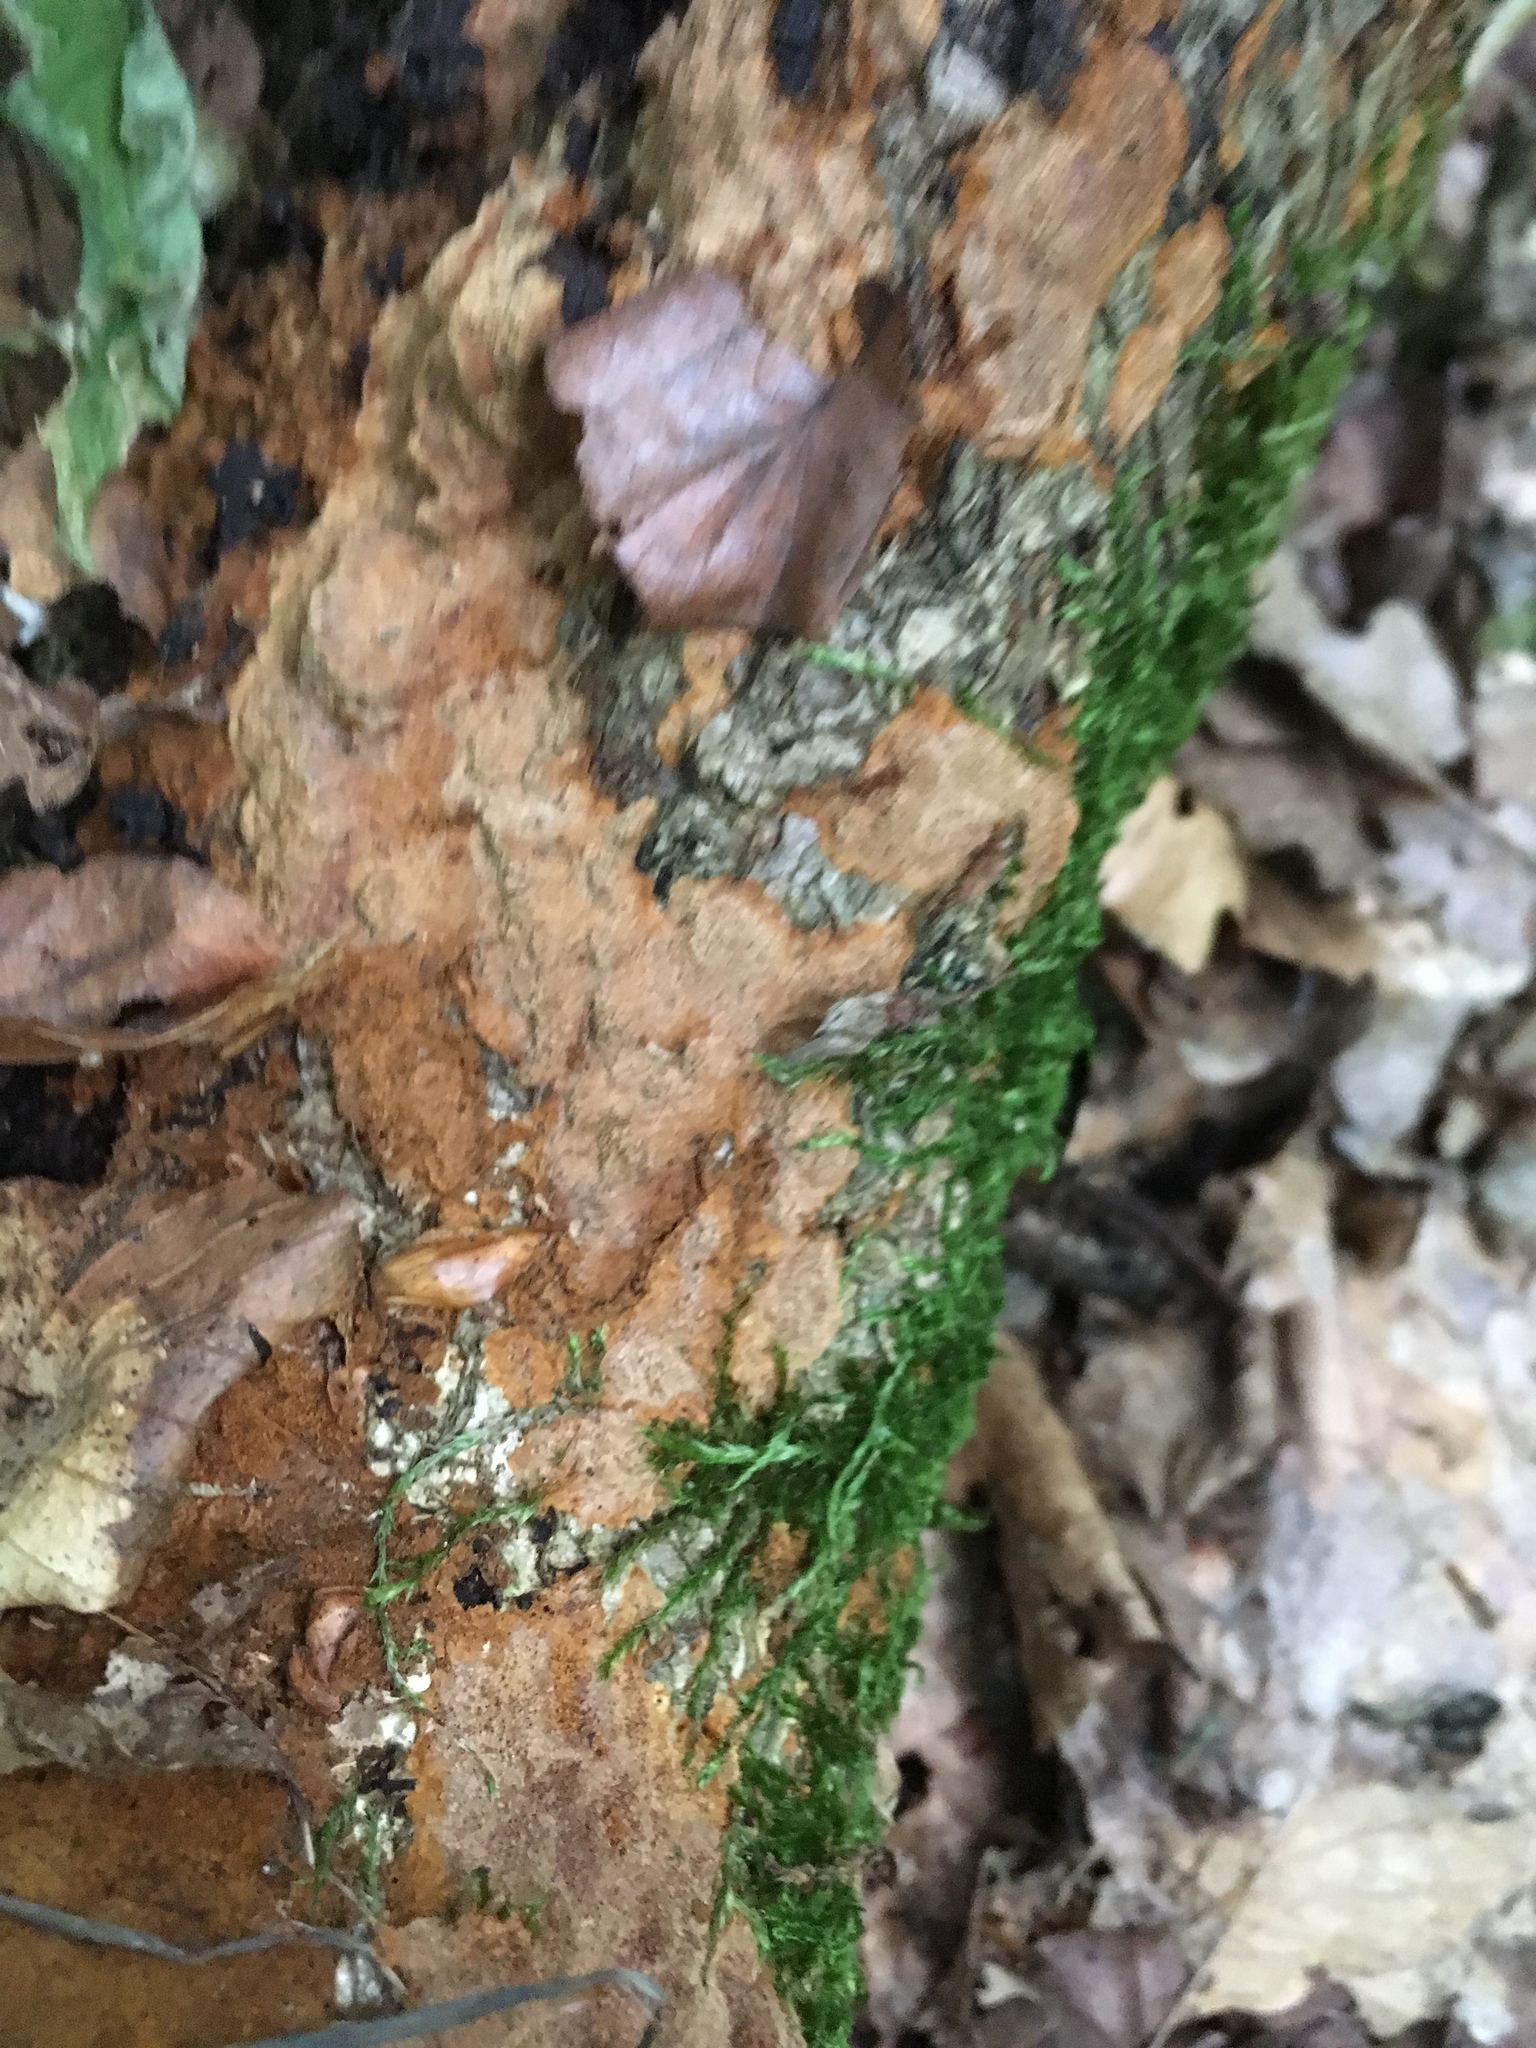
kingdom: Fungi
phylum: Basidiomycota
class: Agaricomycetes
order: Hymenochaetales
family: Hymenochaetaceae
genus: Fuscoporia
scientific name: Fuscoporia ferruginosa
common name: Rusty porecrust
